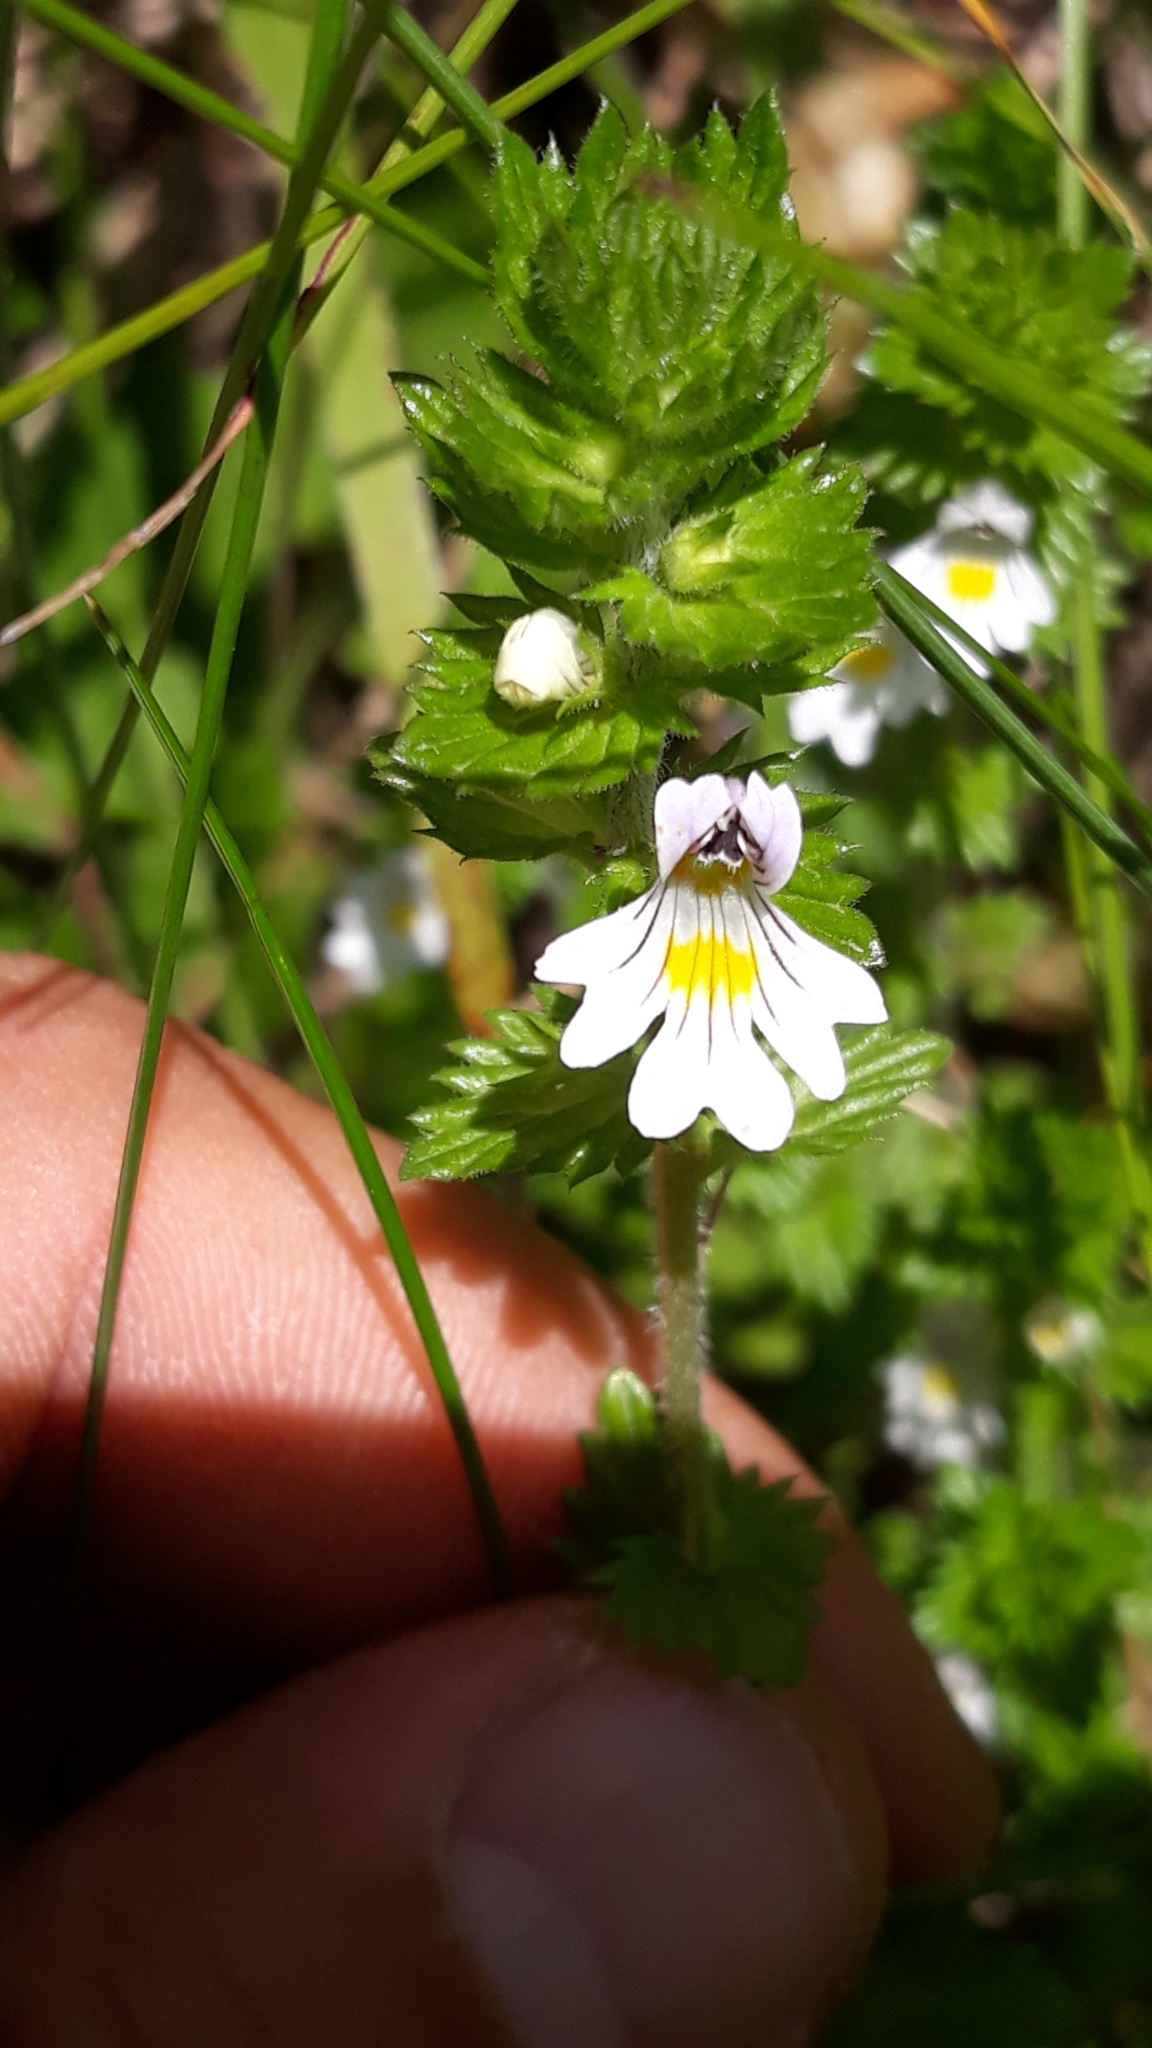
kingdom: Plantae
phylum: Tracheophyta
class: Magnoliopsida
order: Lamiales
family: Orobanchaceae
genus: Euphrasia
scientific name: Euphrasia officinalis
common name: Eyebright
